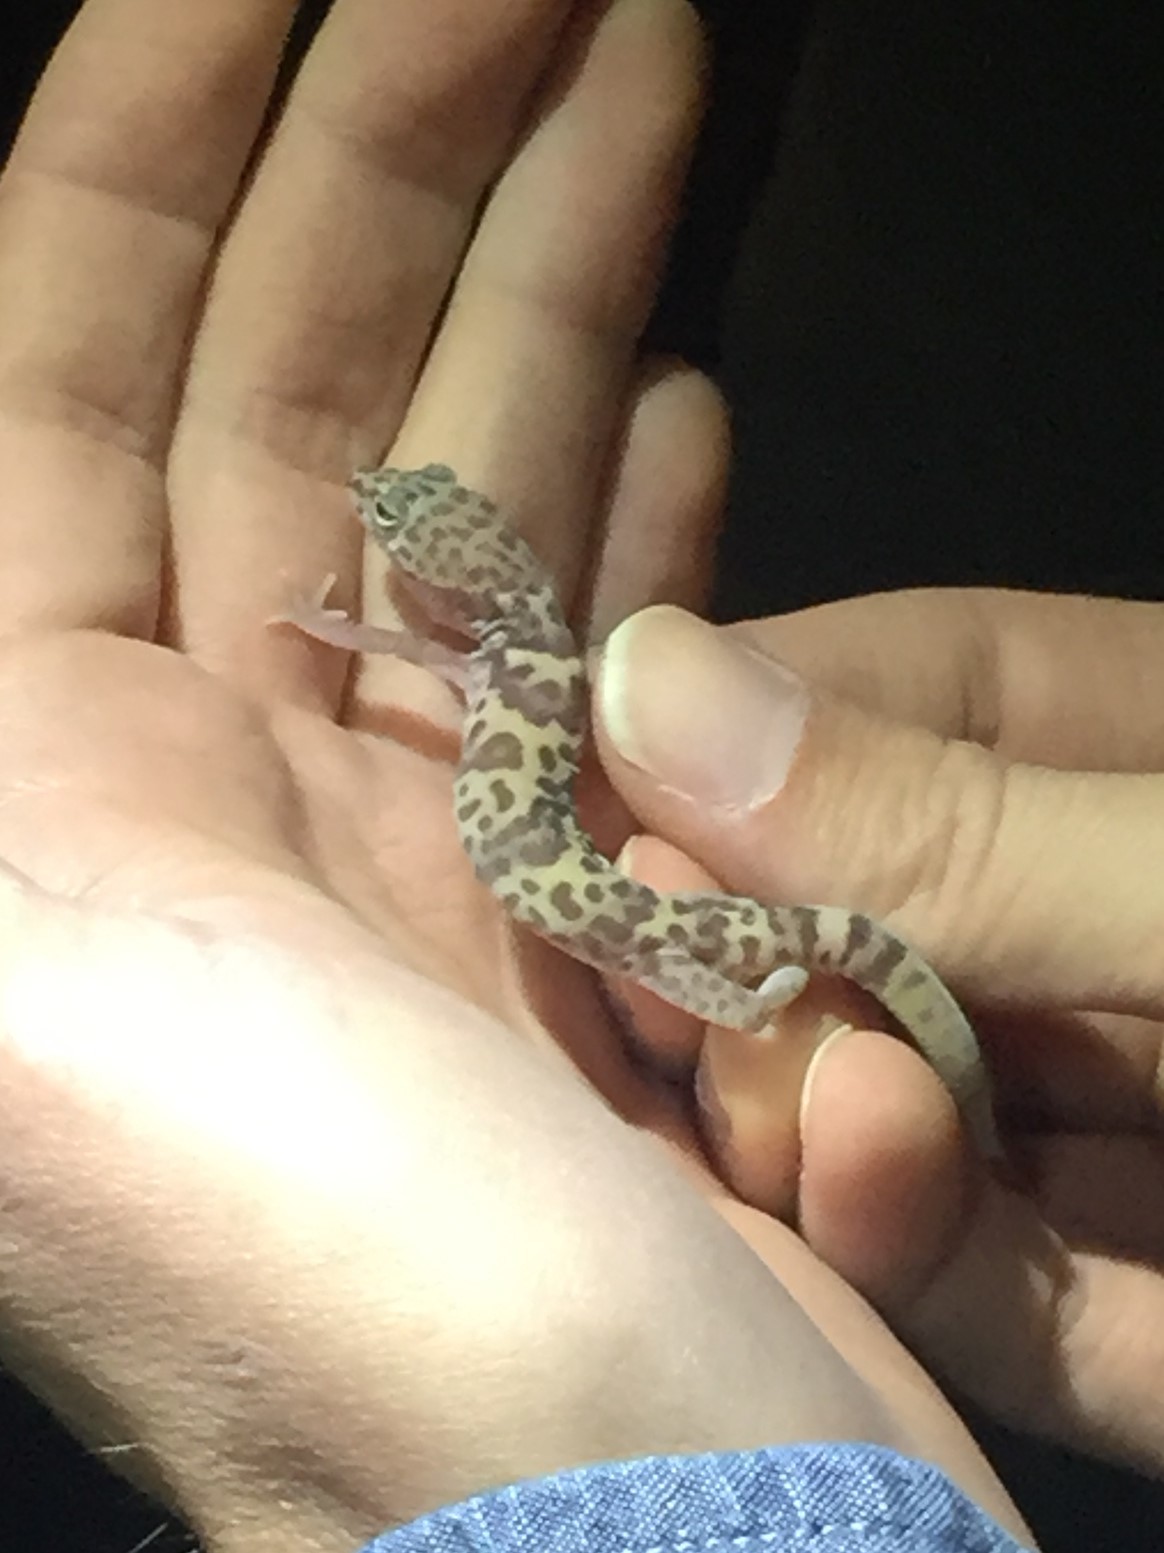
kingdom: Animalia
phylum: Chordata
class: Squamata
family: Eublepharidae
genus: Coleonyx
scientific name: Coleonyx variegatus
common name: Western banded gecko
